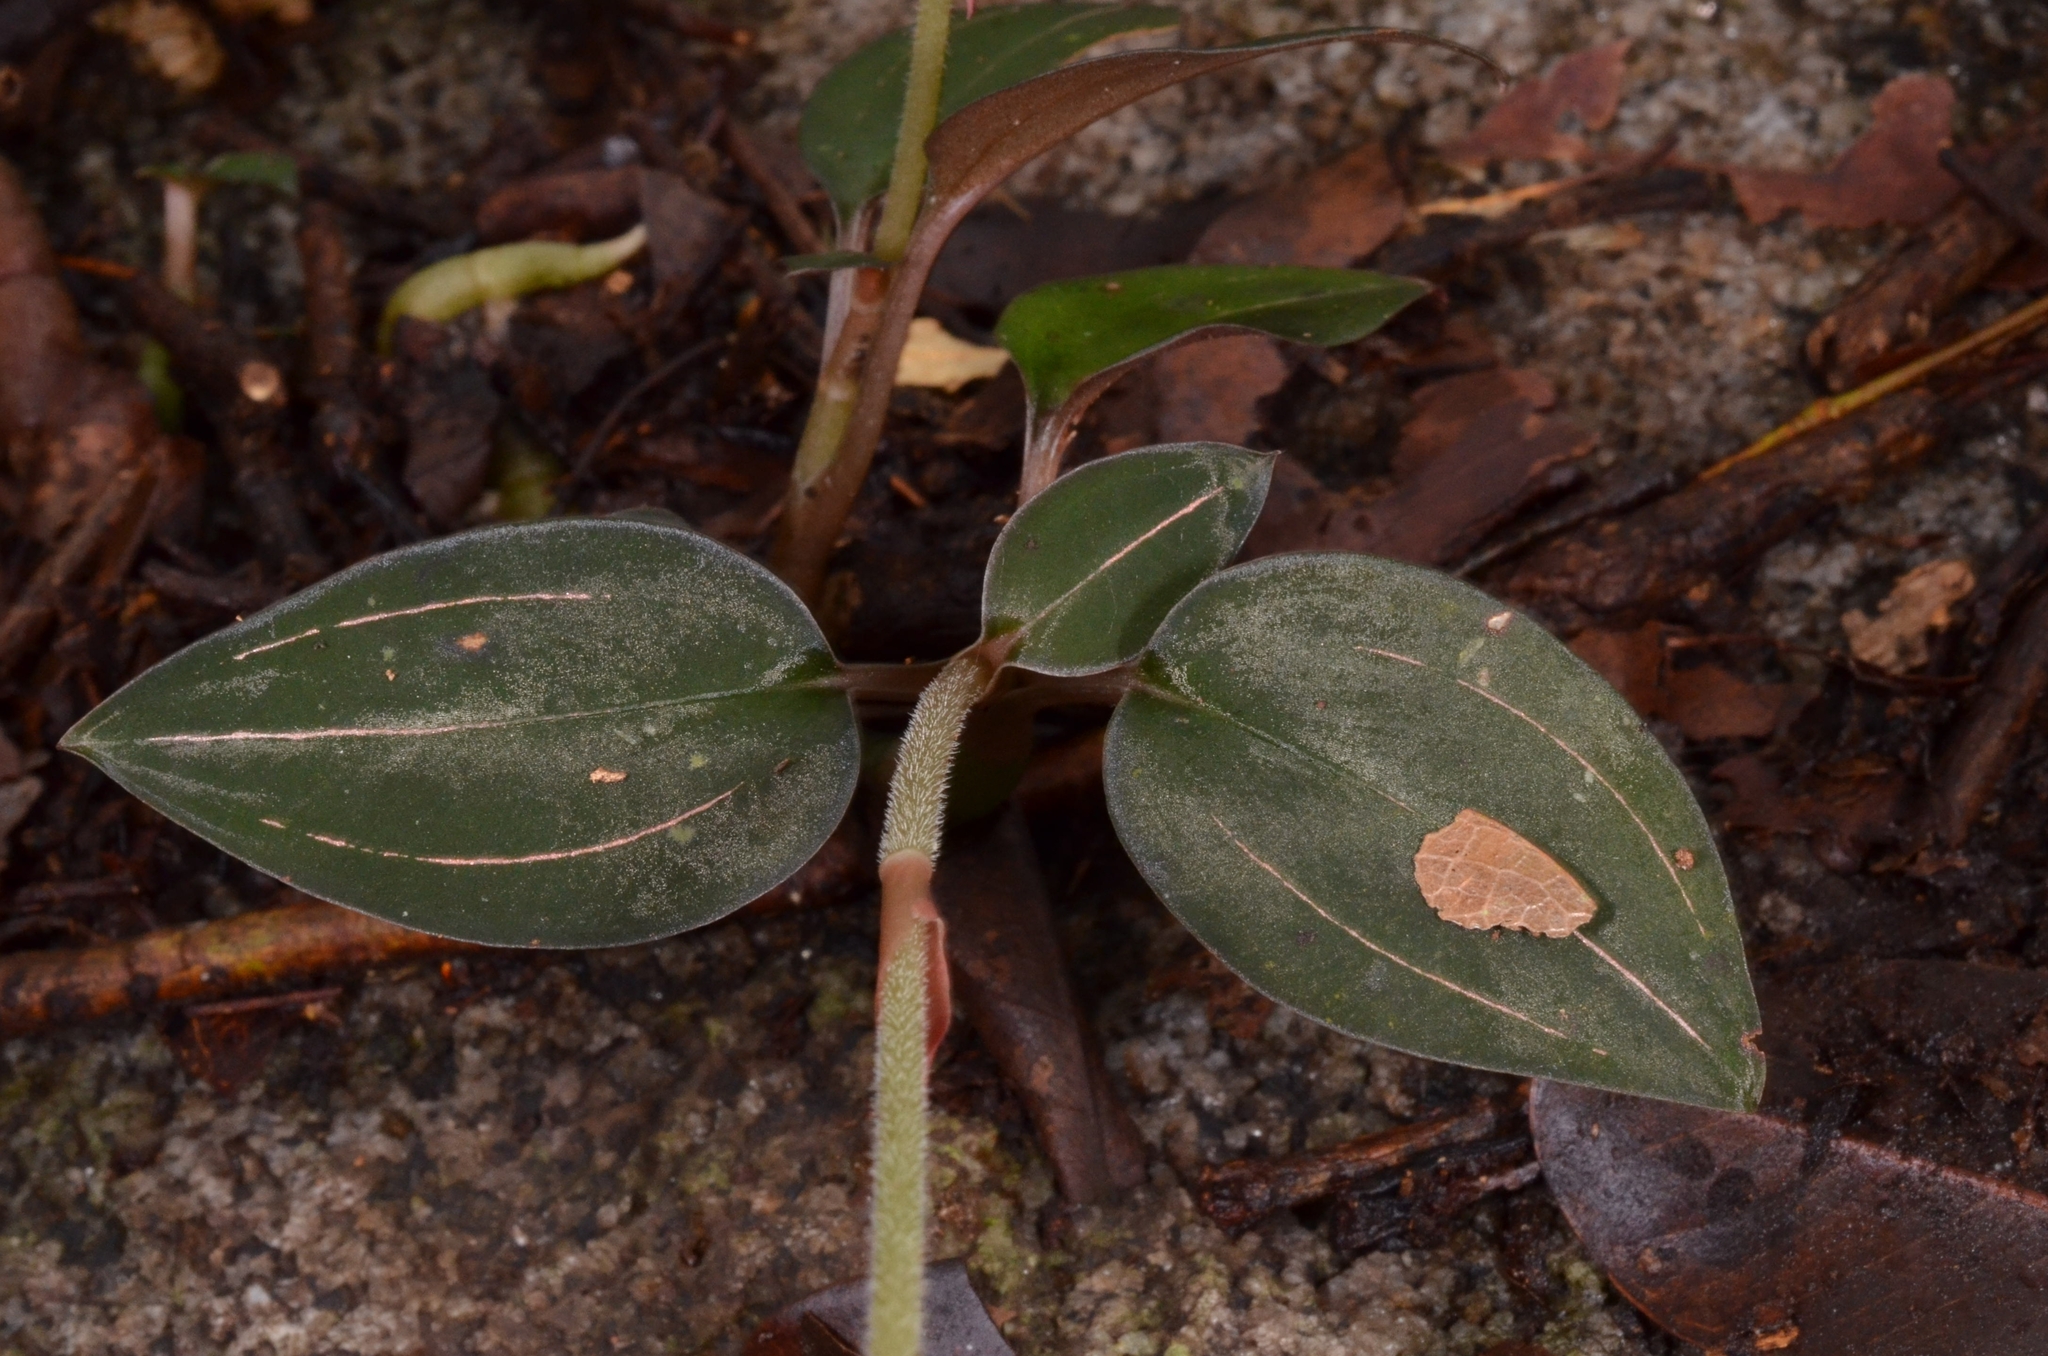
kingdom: Plantae
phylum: Tracheophyta
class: Liliopsida
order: Asparagales
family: Orchidaceae
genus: Ludisia
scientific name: Ludisia discolor
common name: Jewel orchid
